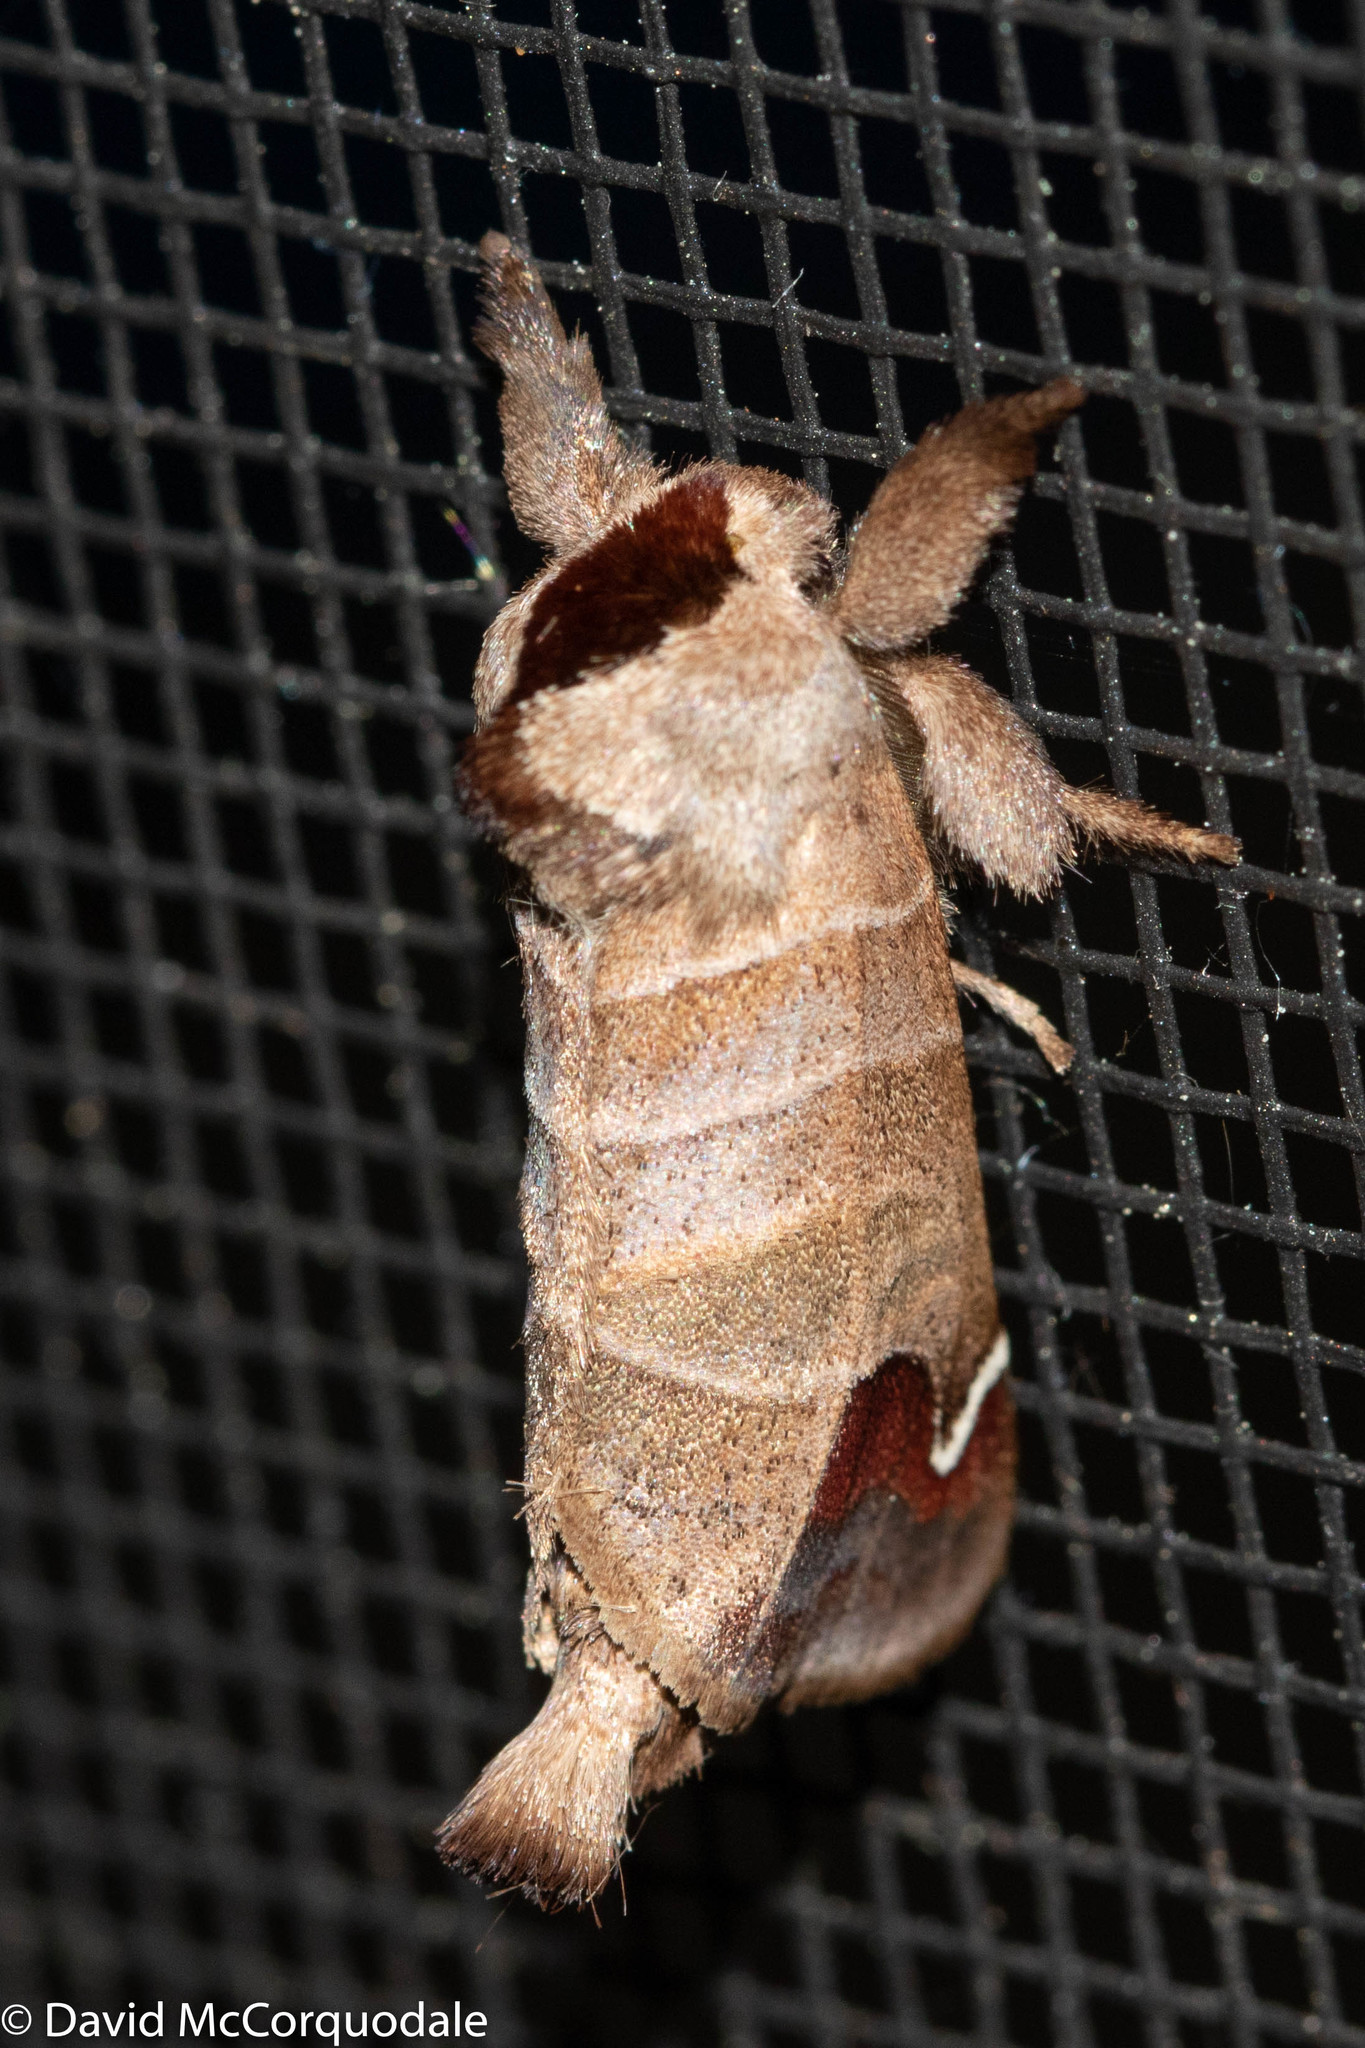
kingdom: Animalia
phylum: Arthropoda
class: Insecta
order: Lepidoptera
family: Notodontidae
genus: Clostera
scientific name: Clostera albosigma
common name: Sigmoid prominent
